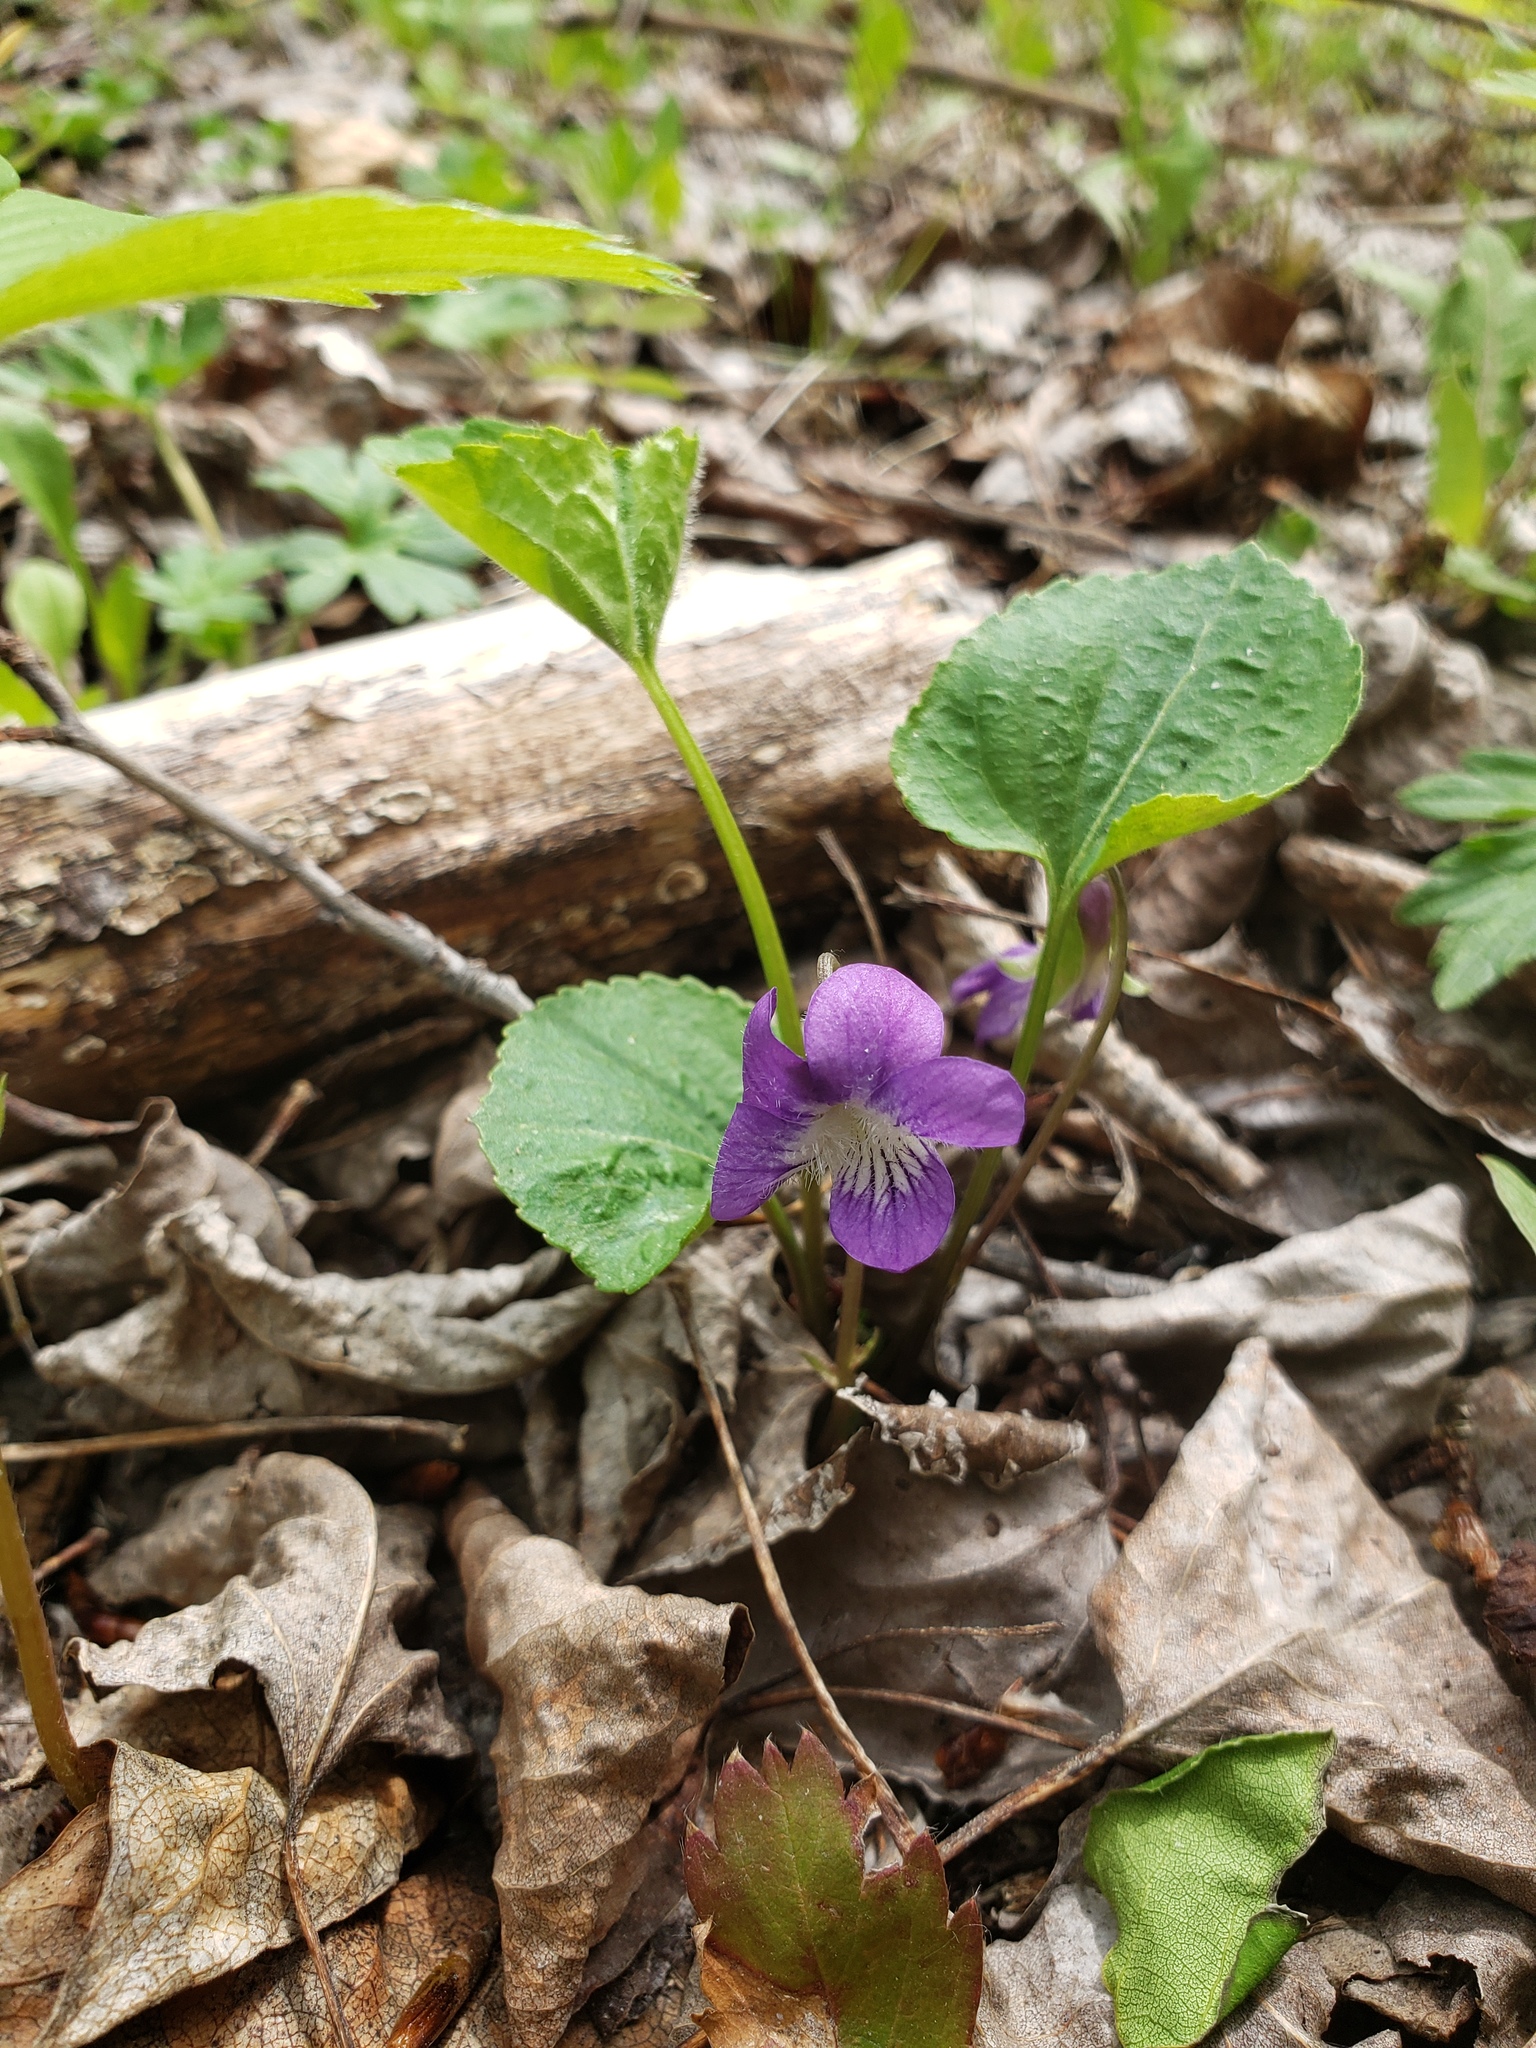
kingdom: Plantae
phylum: Tracheophyta
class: Magnoliopsida
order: Malpighiales
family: Violaceae
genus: Viola
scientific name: Viola septentrionalis
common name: Northern woodland violet
